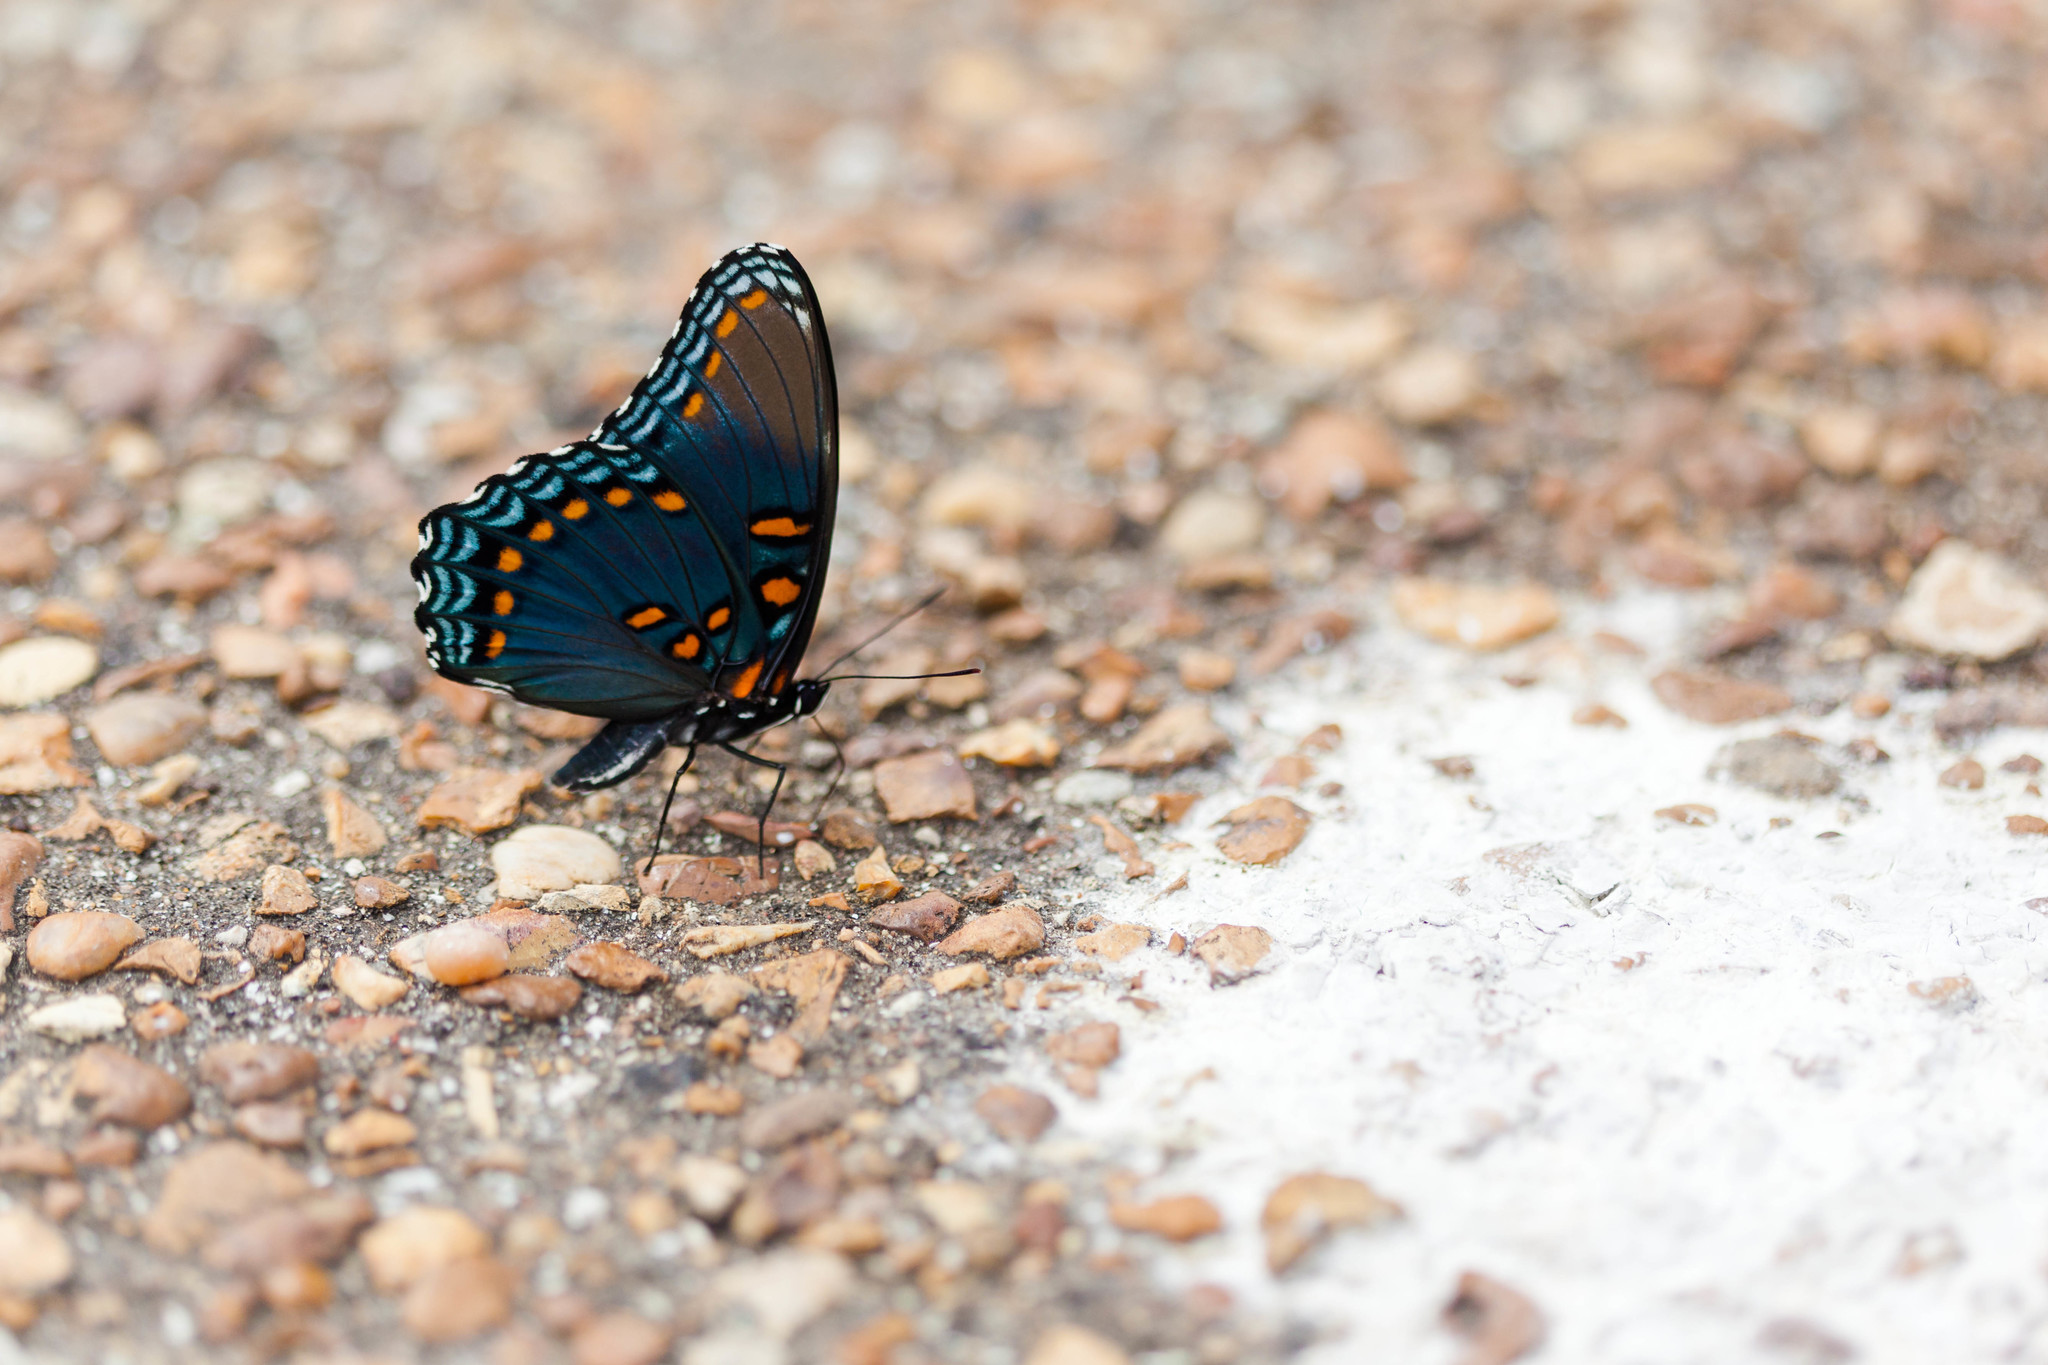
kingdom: Animalia
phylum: Arthropoda
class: Insecta
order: Lepidoptera
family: Nymphalidae
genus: Limenitis
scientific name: Limenitis astyanax
